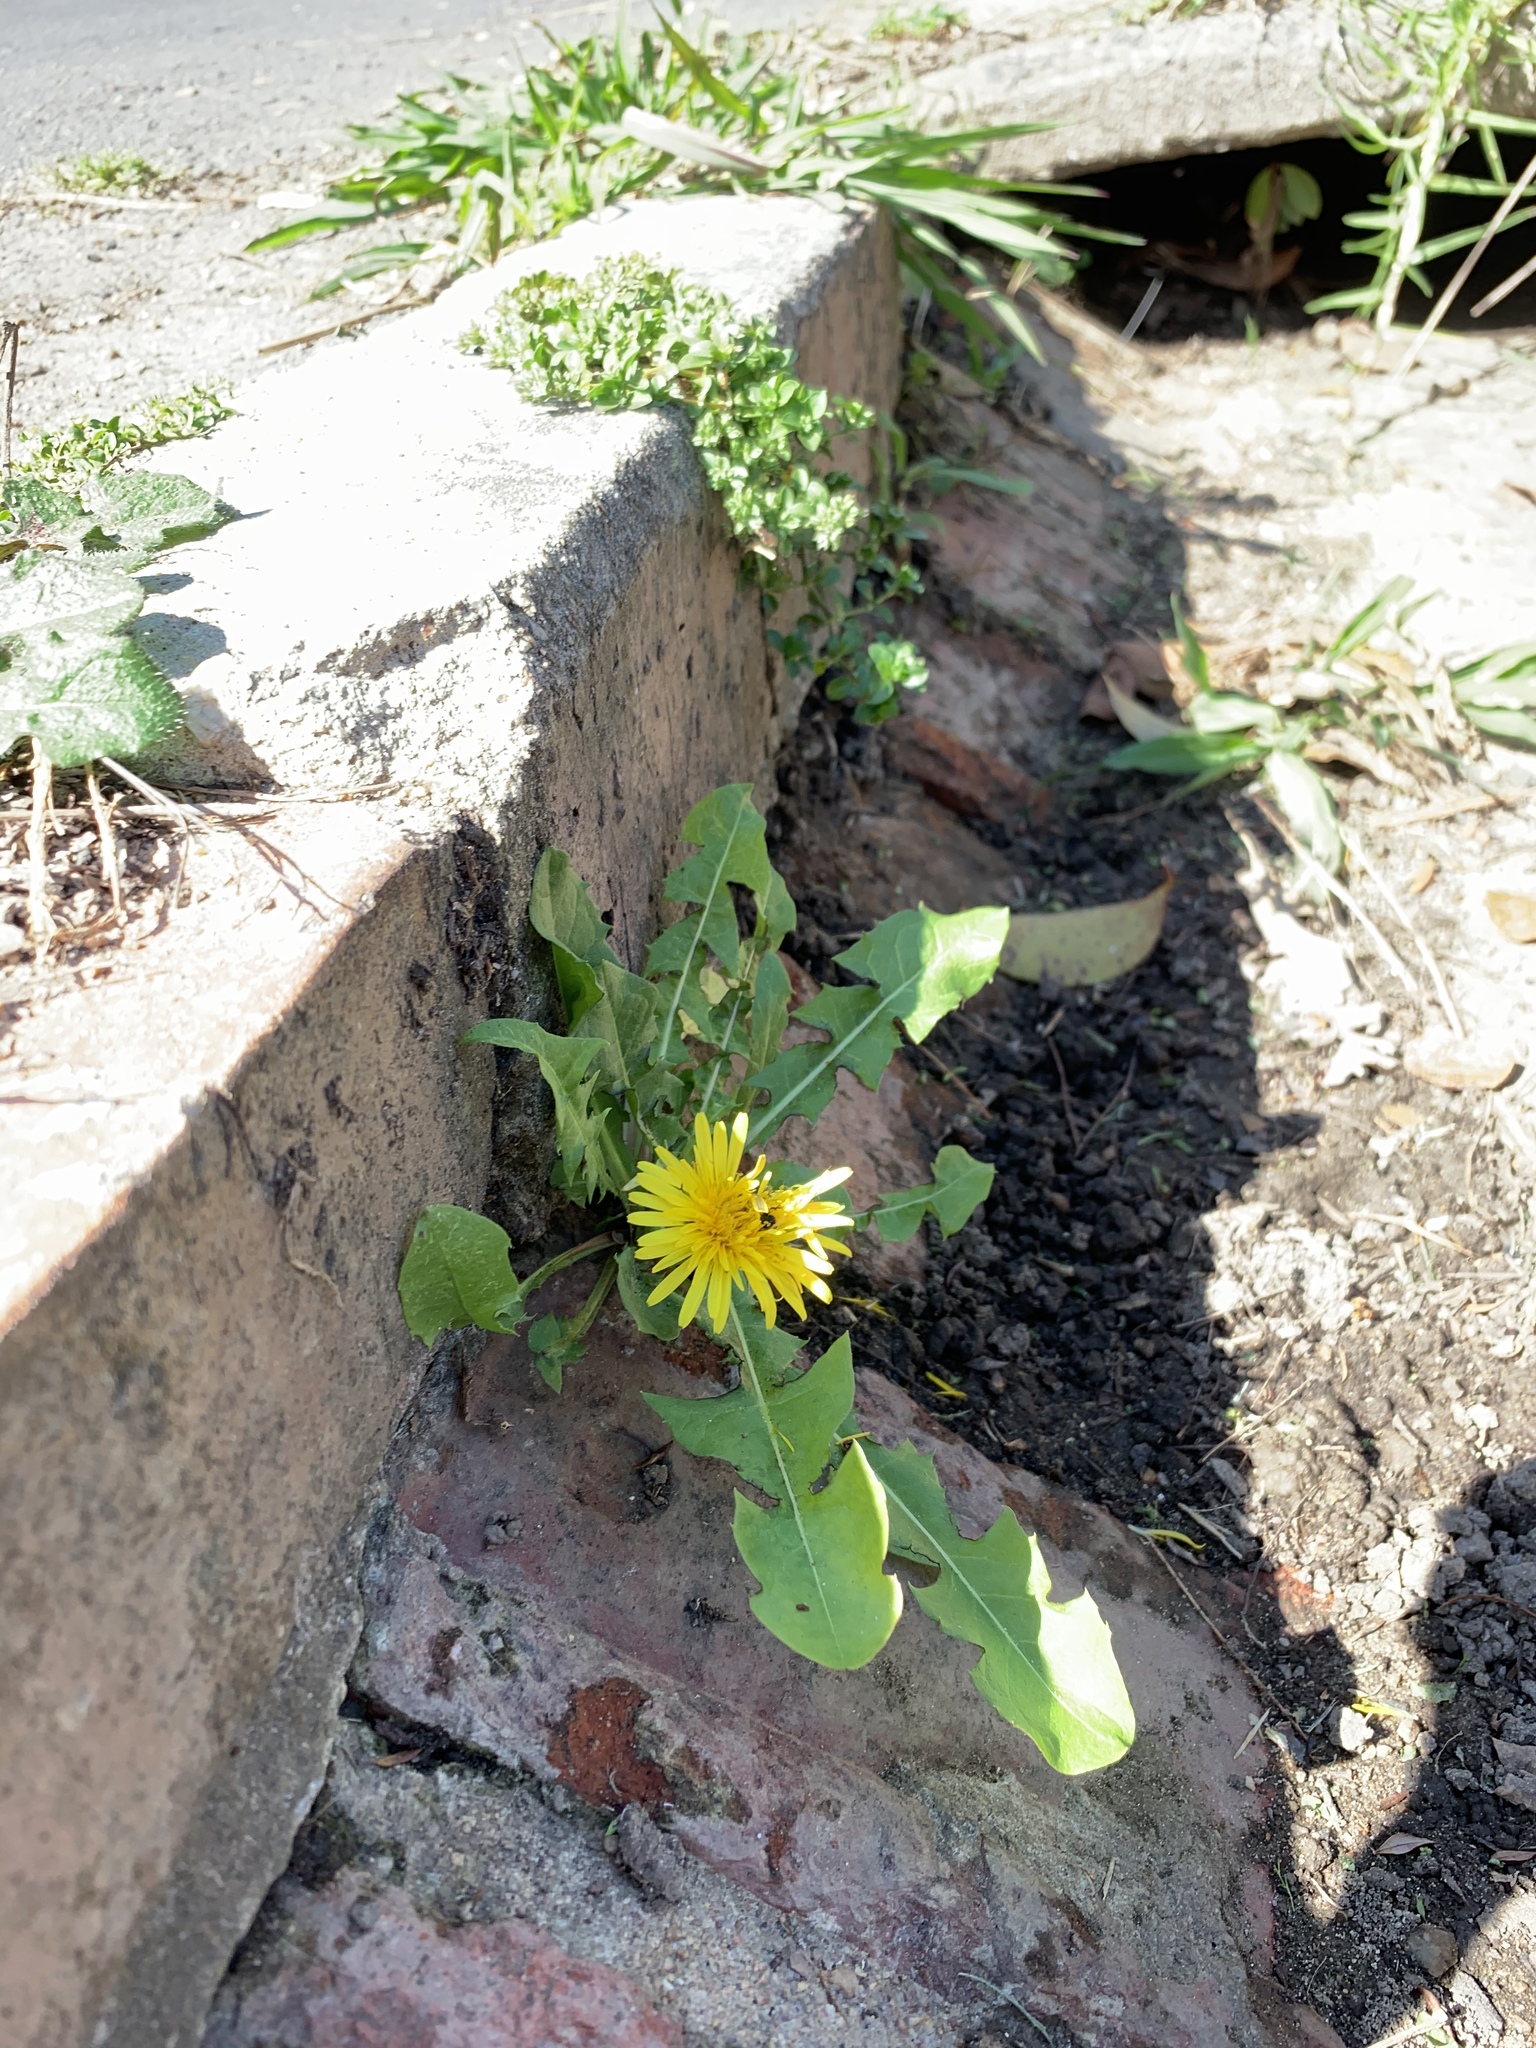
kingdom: Plantae
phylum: Tracheophyta
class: Magnoliopsida
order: Asterales
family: Asteraceae
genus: Taraxacum
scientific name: Taraxacum officinale
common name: Common dandelion
